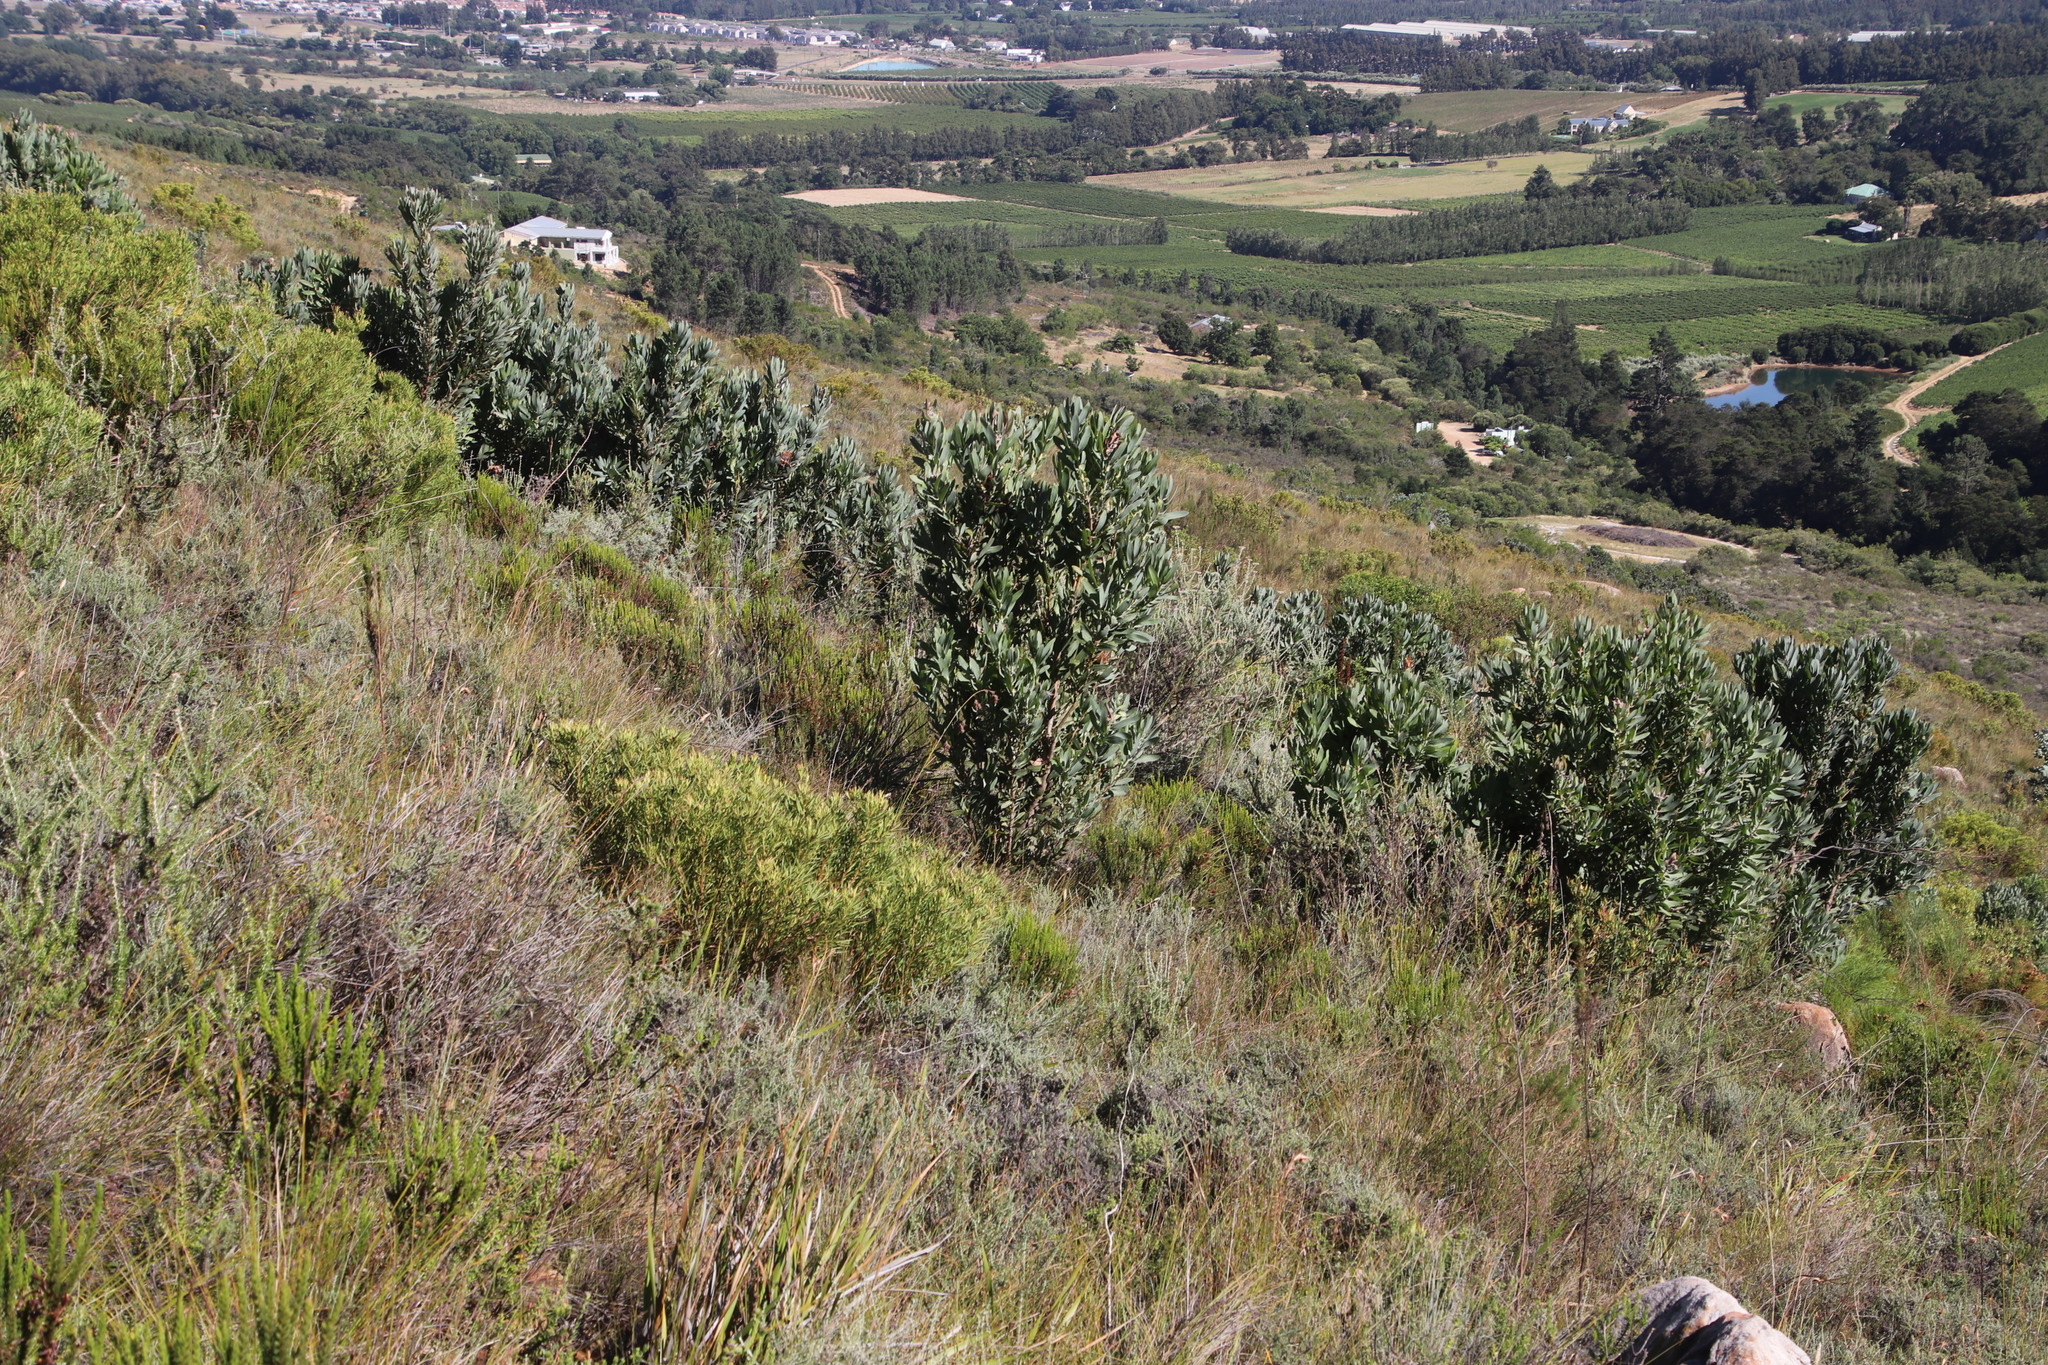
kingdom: Plantae
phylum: Tracheophyta
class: Magnoliopsida
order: Proteales
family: Proteaceae
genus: Protea
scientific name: Protea laurifolia
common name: Grey-leaf sugarbsh
